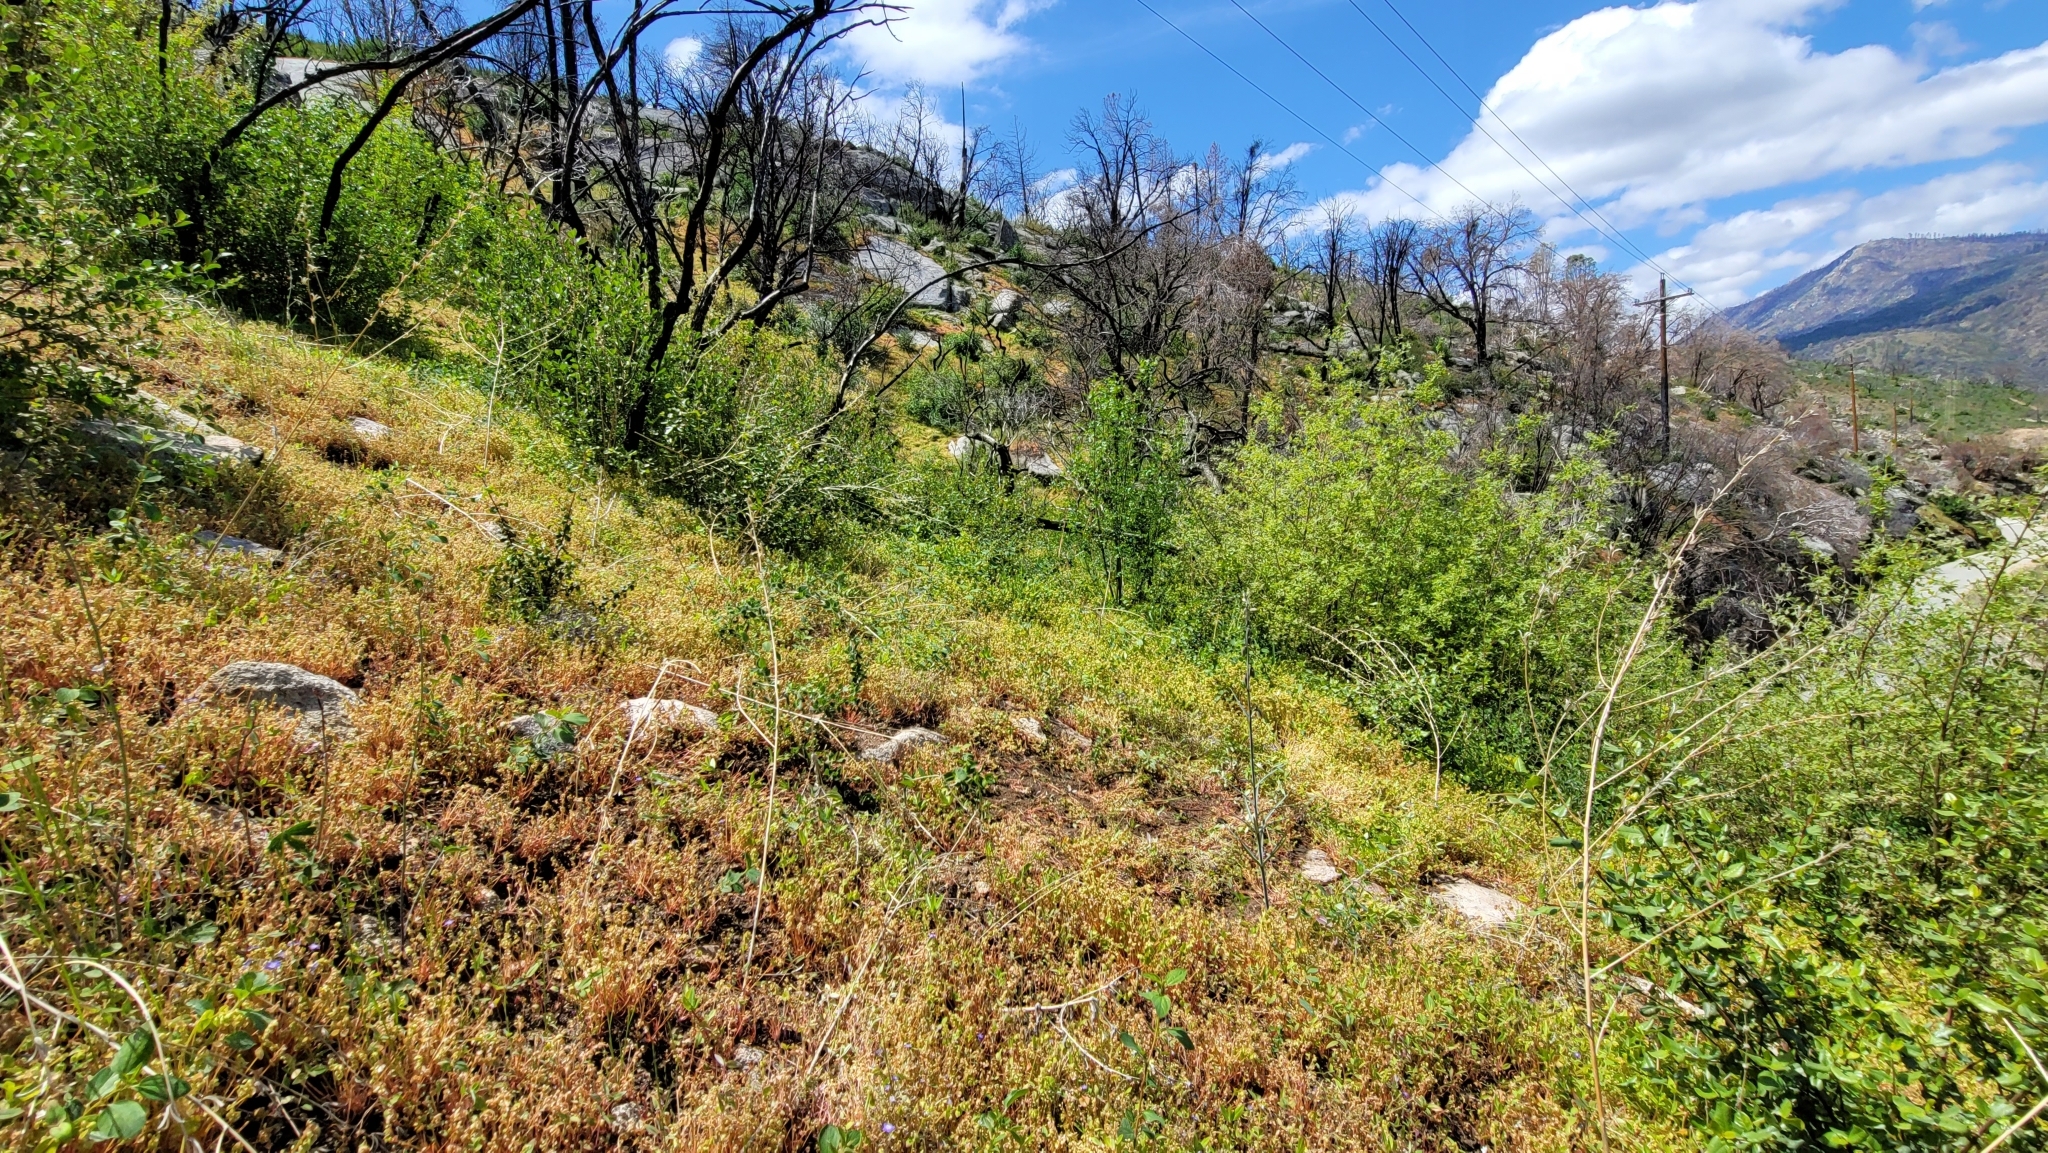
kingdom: Plantae
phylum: Tracheophyta
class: Liliopsida
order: Liliales
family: Liliaceae
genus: Fritillaria
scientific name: Fritillaria micrantha
